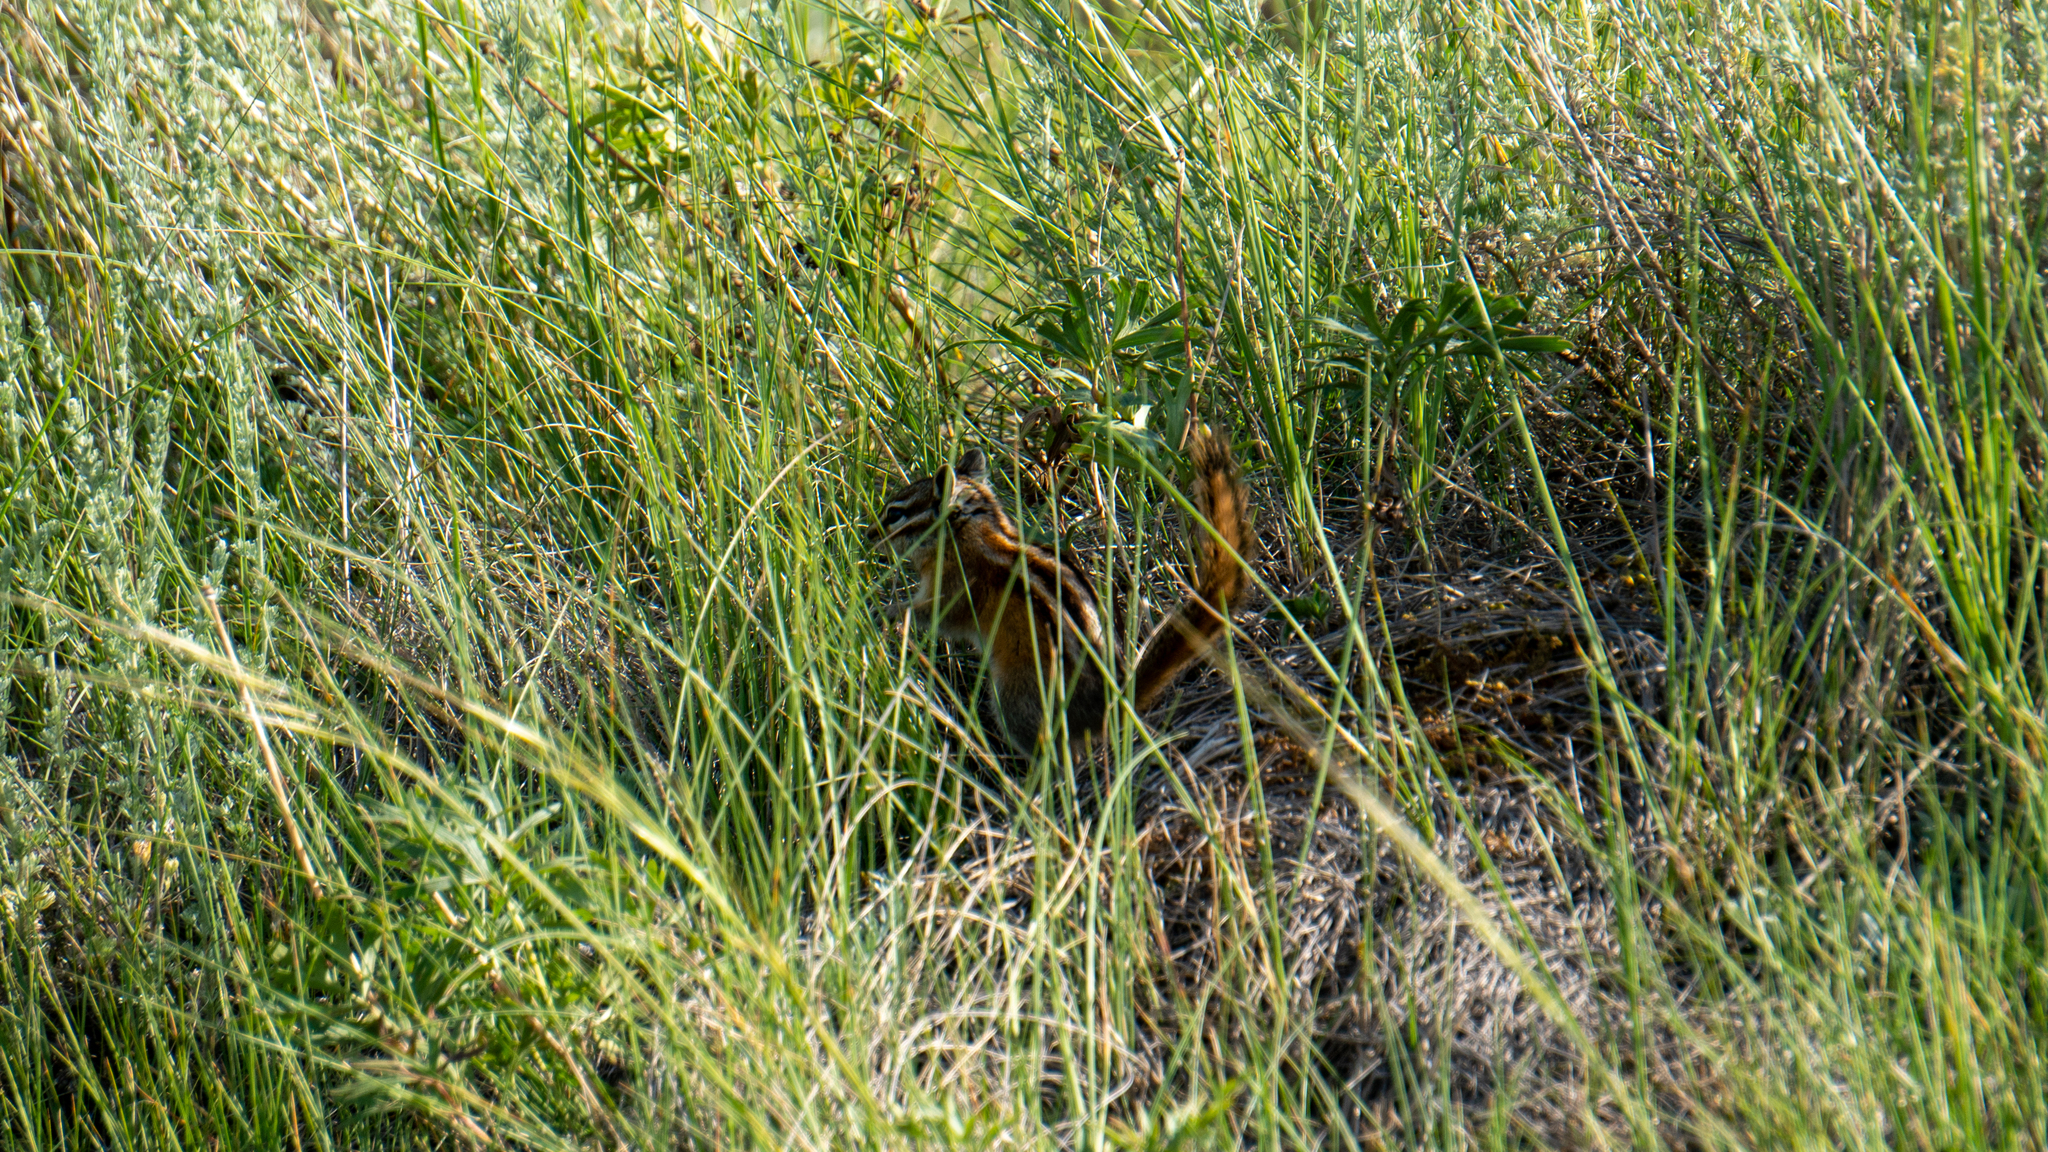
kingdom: Animalia
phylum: Chordata
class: Mammalia
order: Rodentia
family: Sciuridae
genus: Tamias
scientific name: Tamias minimus
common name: Least chipmunk
